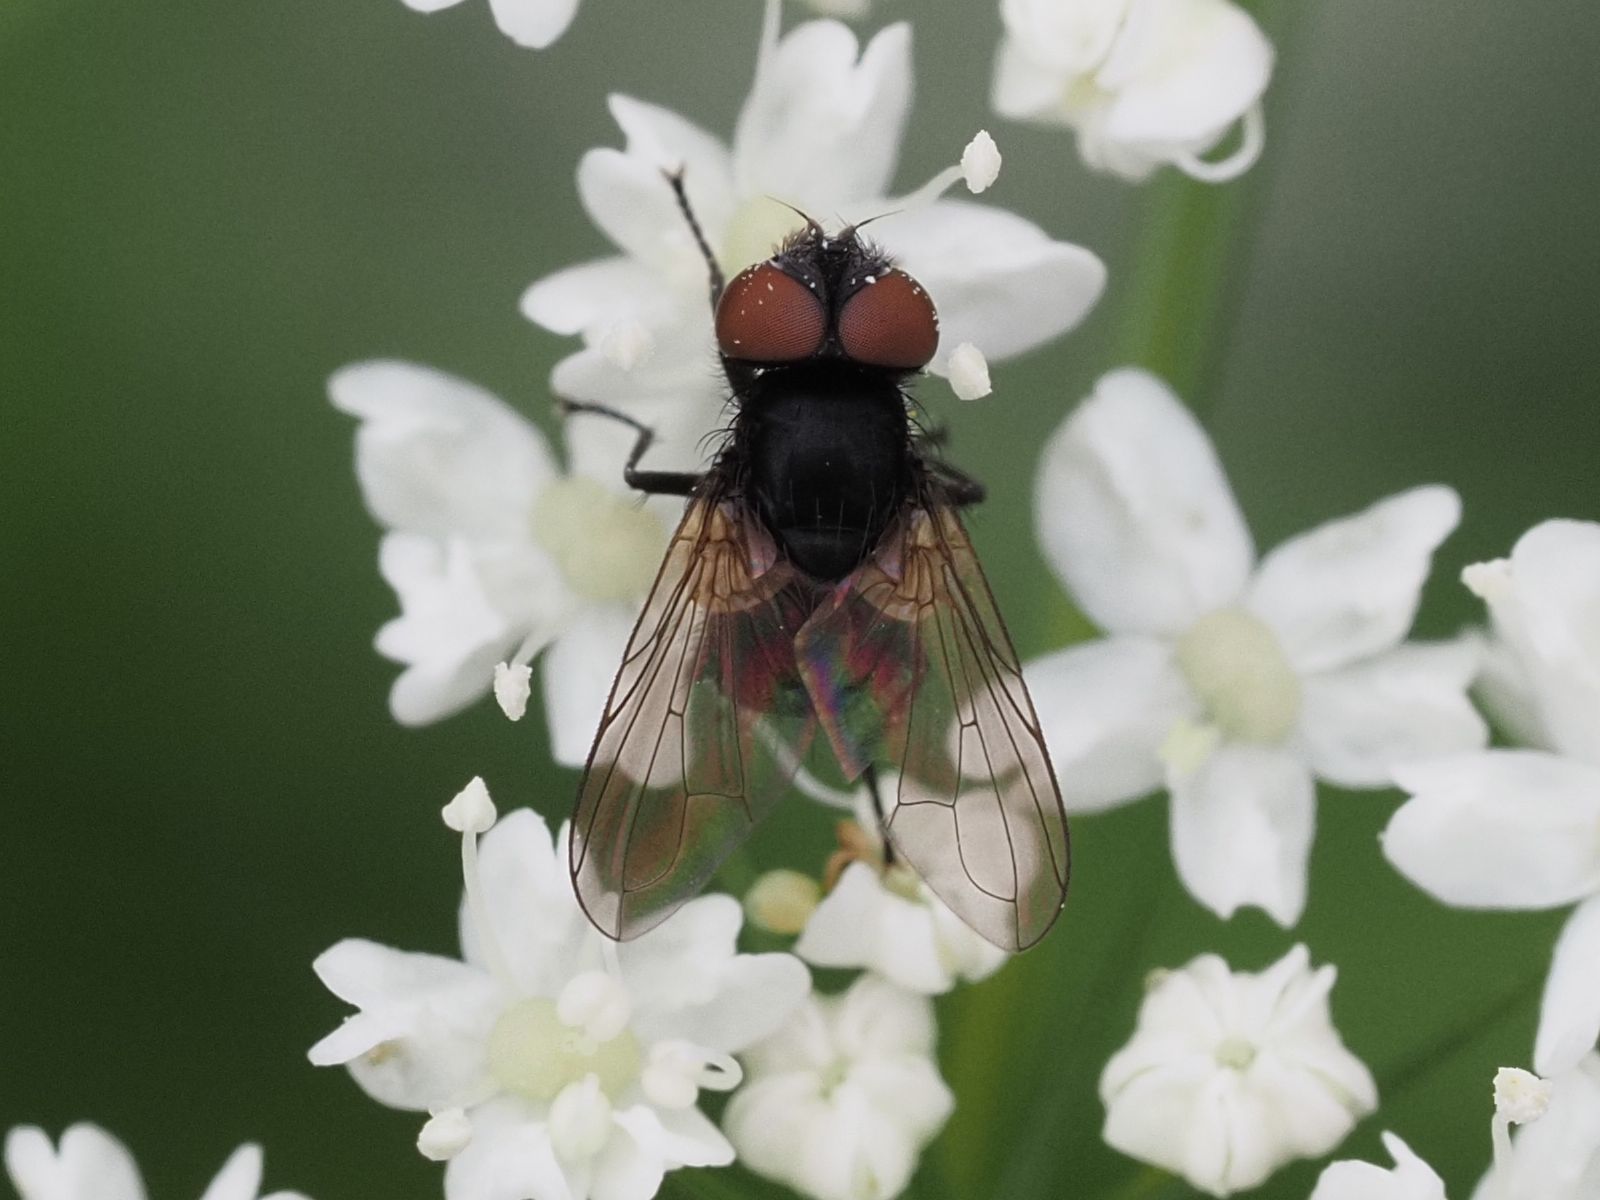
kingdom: Animalia
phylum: Arthropoda
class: Insecta
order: Diptera
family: Tachinidae
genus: Phasia
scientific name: Phasia barbifrons
